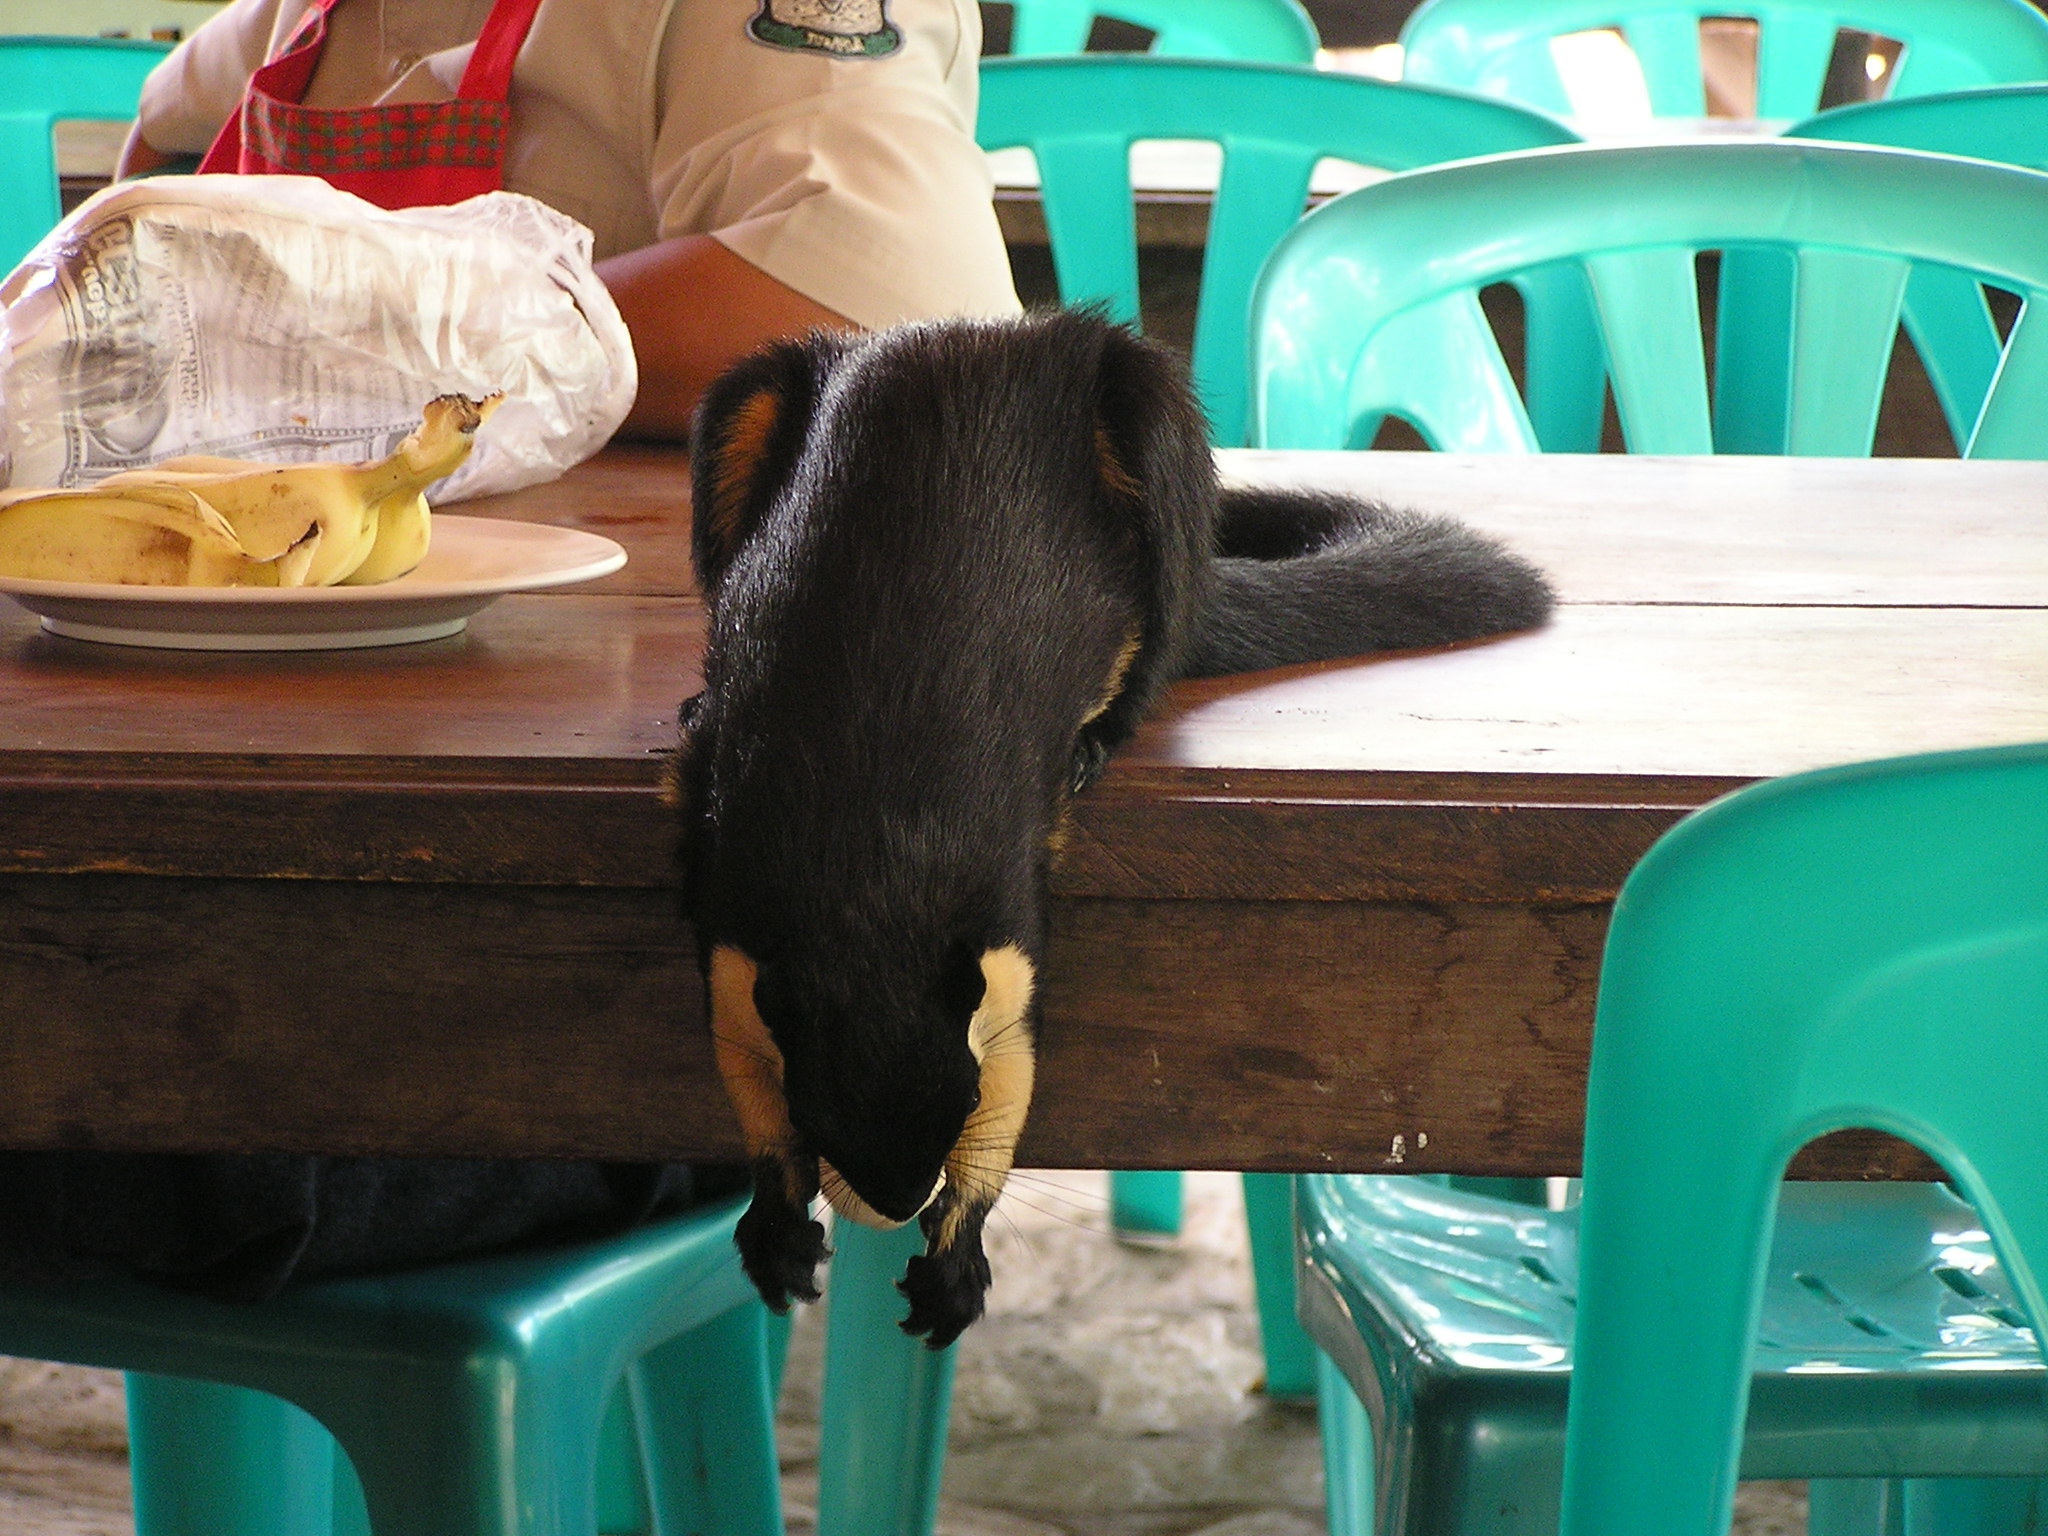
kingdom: Animalia
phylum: Chordata
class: Mammalia
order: Rodentia
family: Sciuridae
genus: Ratufa
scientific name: Ratufa bicolor
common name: Black giant squirrel
